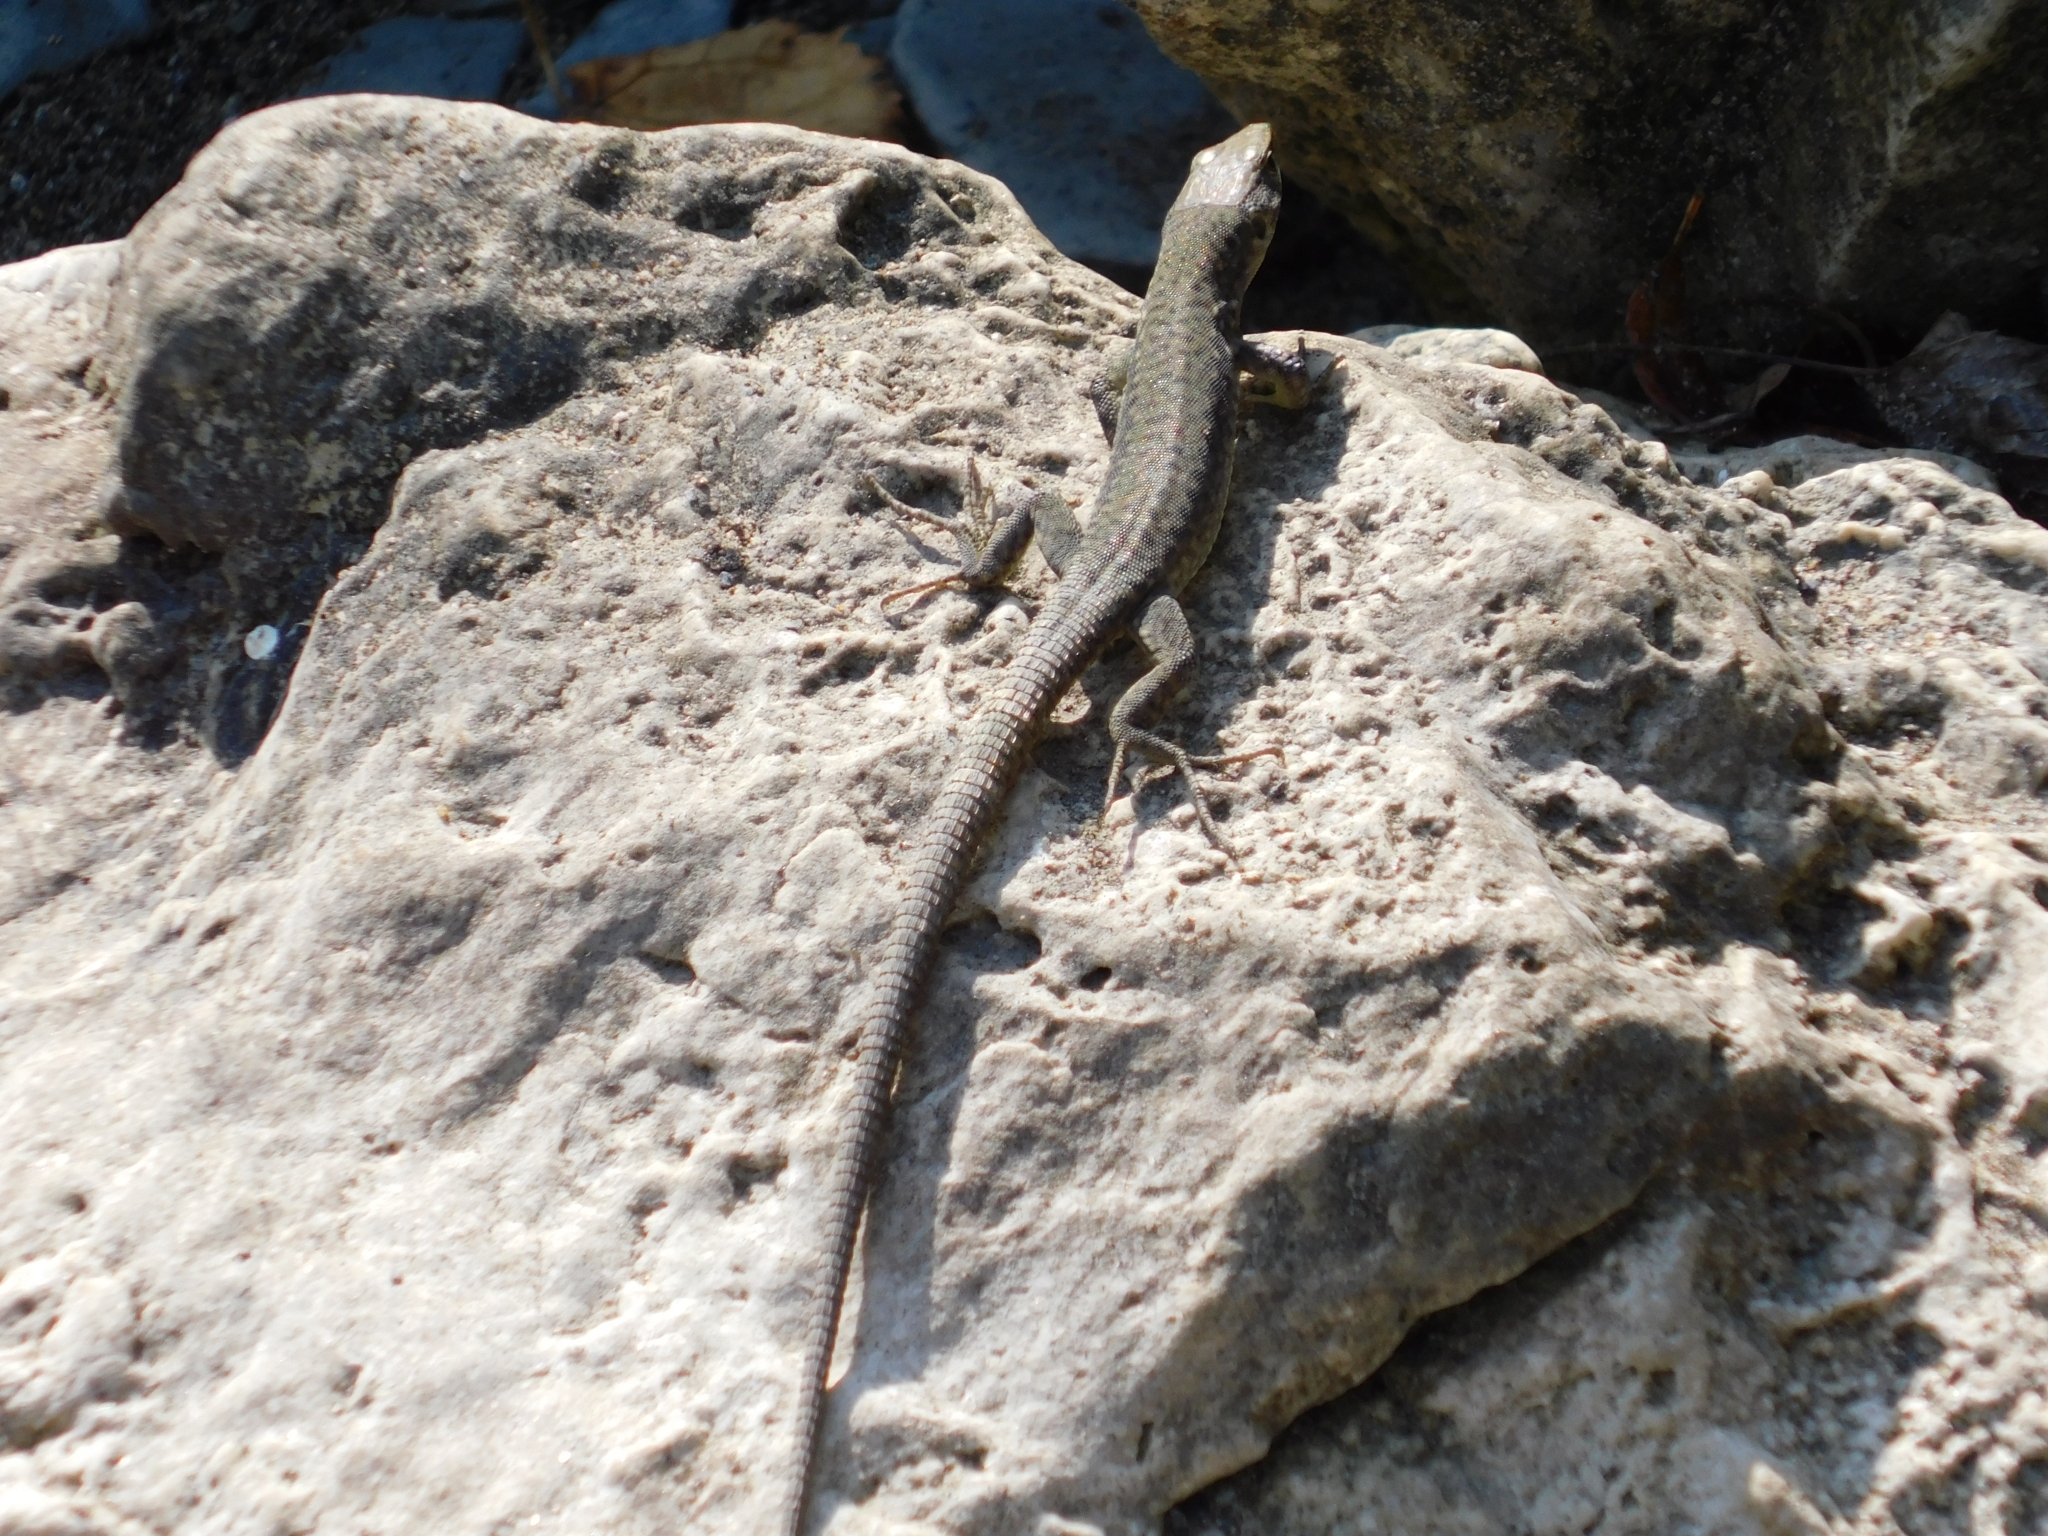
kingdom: Animalia
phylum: Chordata
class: Squamata
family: Lacertidae
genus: Darevskia
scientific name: Darevskia brauneri
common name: Brauner's rock lizard
